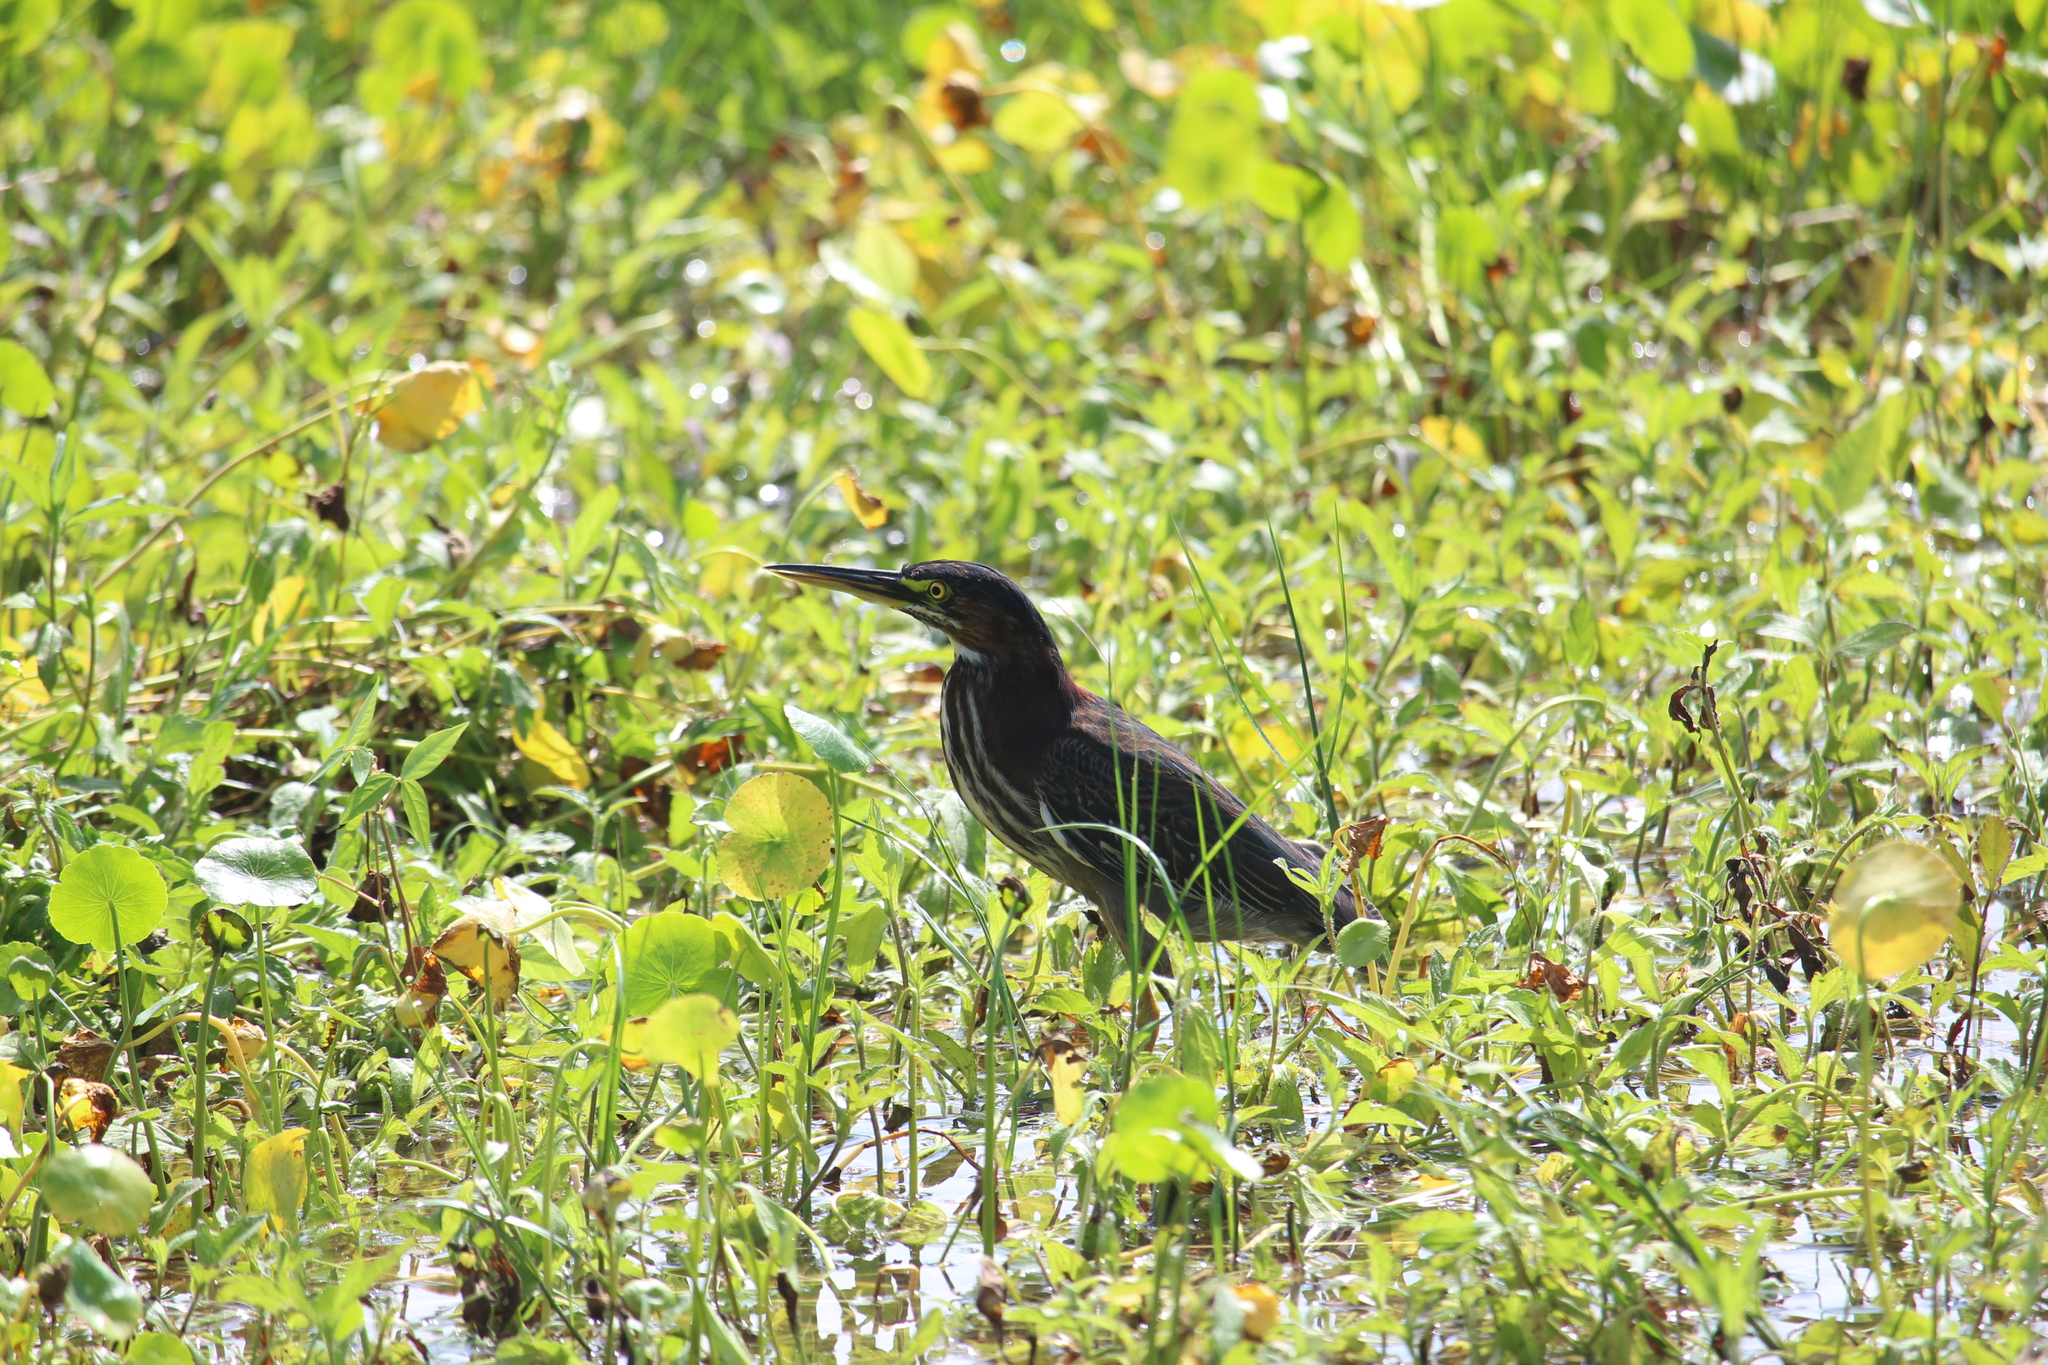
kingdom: Animalia
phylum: Chordata
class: Aves
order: Pelecaniformes
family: Ardeidae
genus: Butorides
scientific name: Butorides virescens
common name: Green heron
